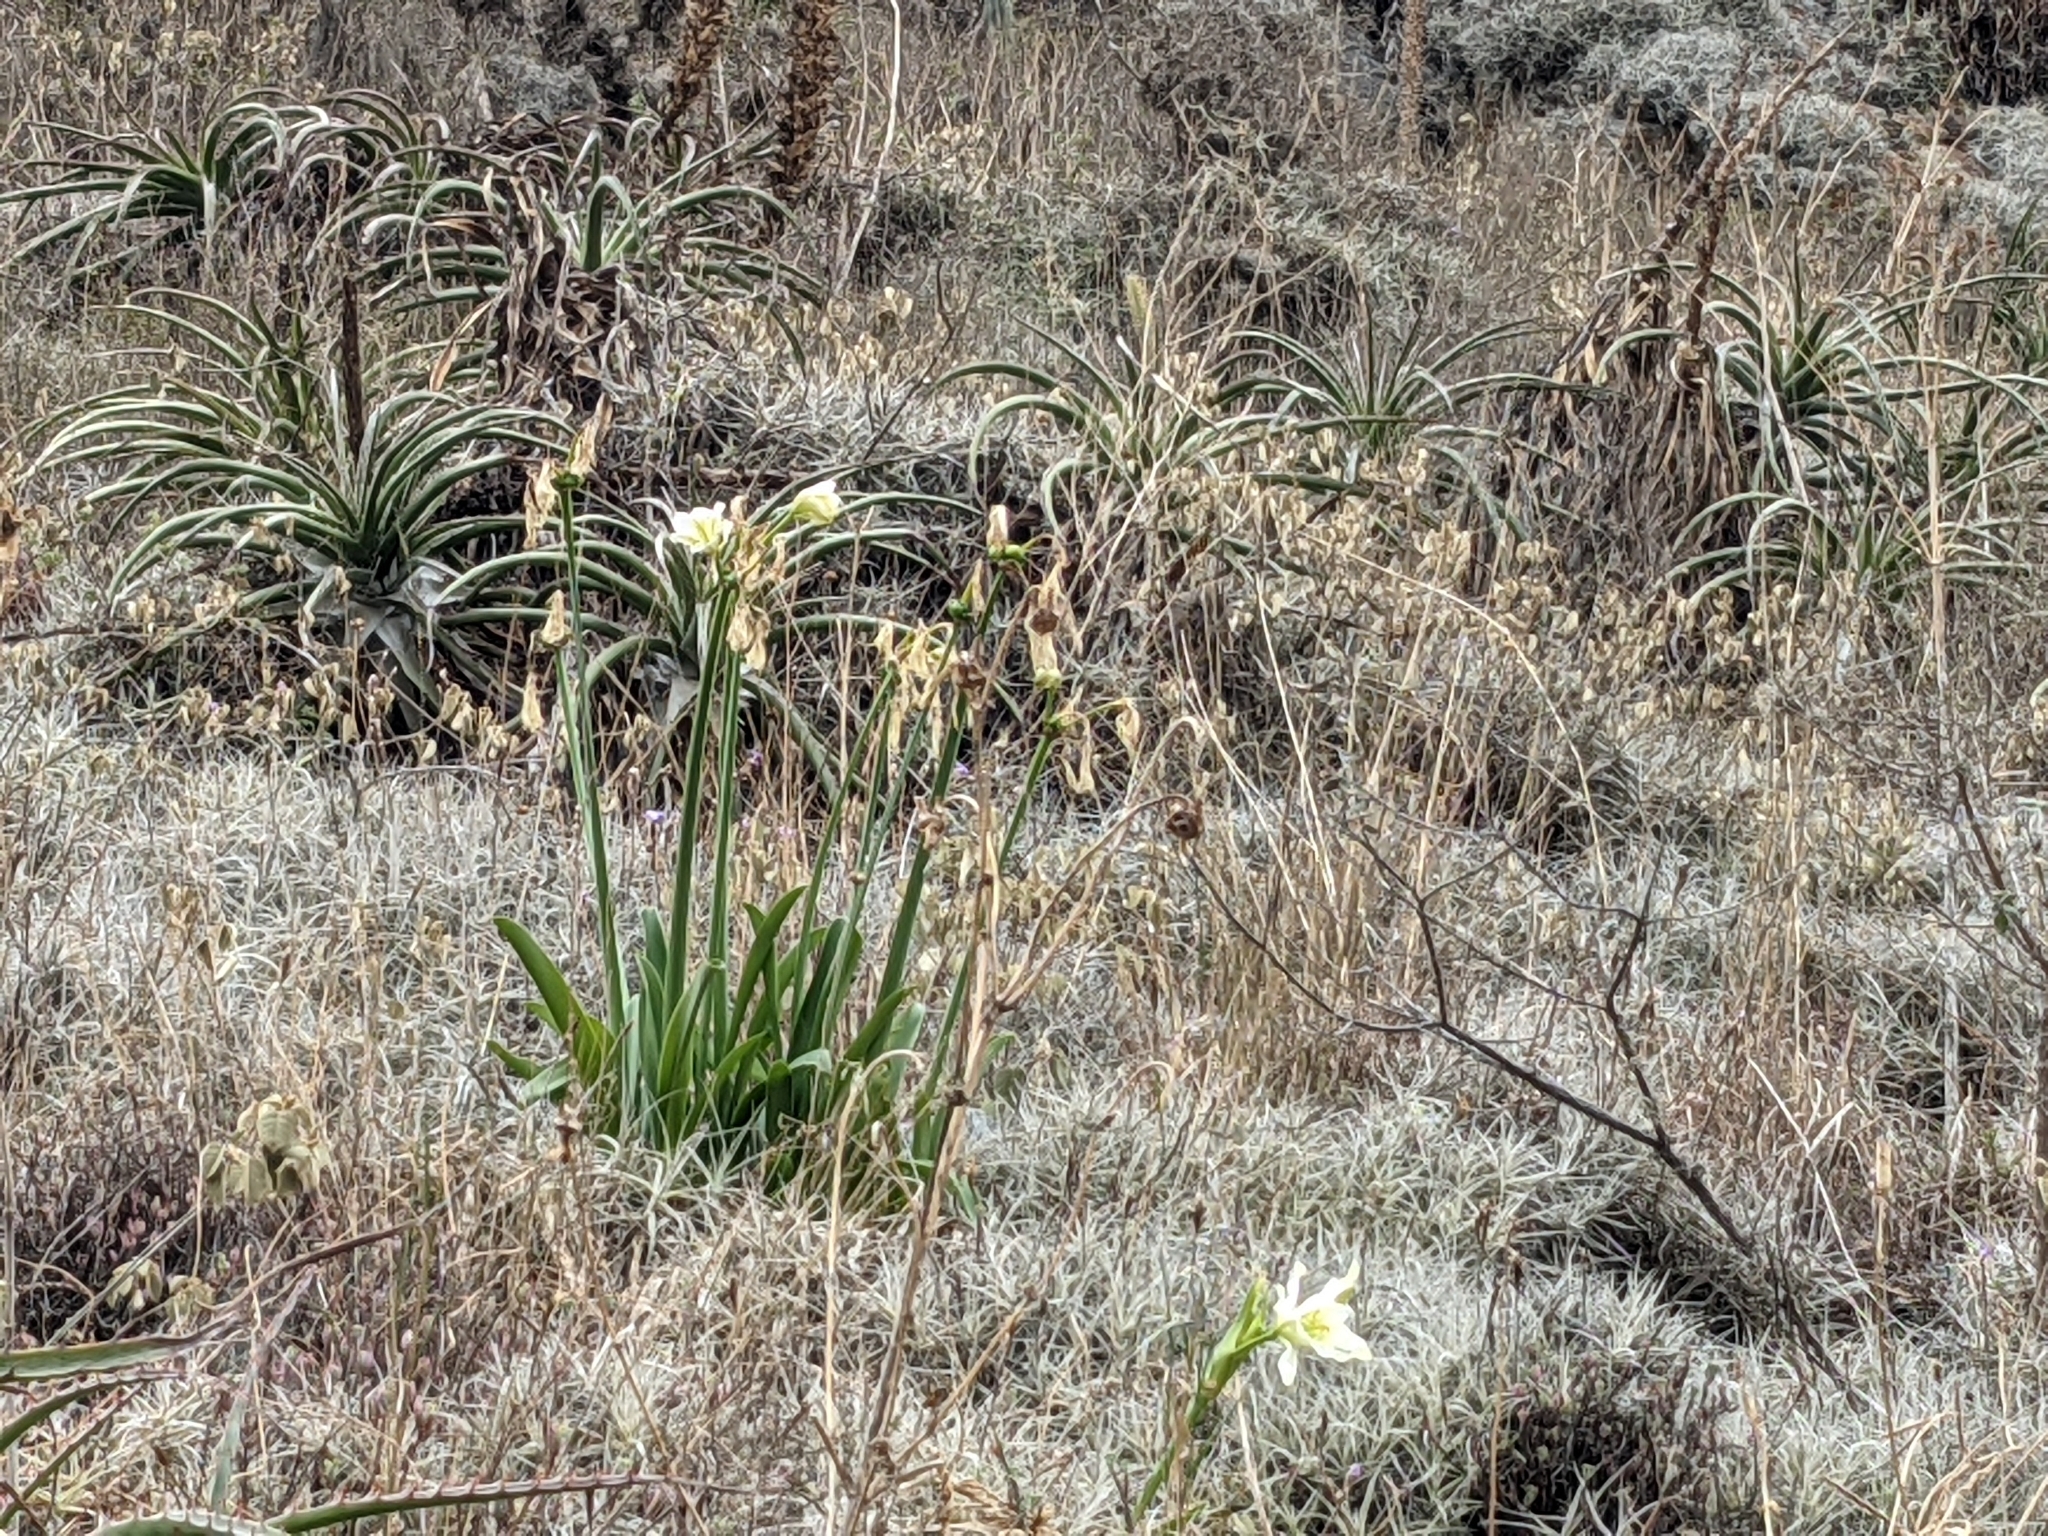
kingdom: Plantae
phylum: Tracheophyta
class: Liliopsida
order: Asparagales
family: Amaryllidaceae
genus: Ismene
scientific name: Ismene hawkesii
